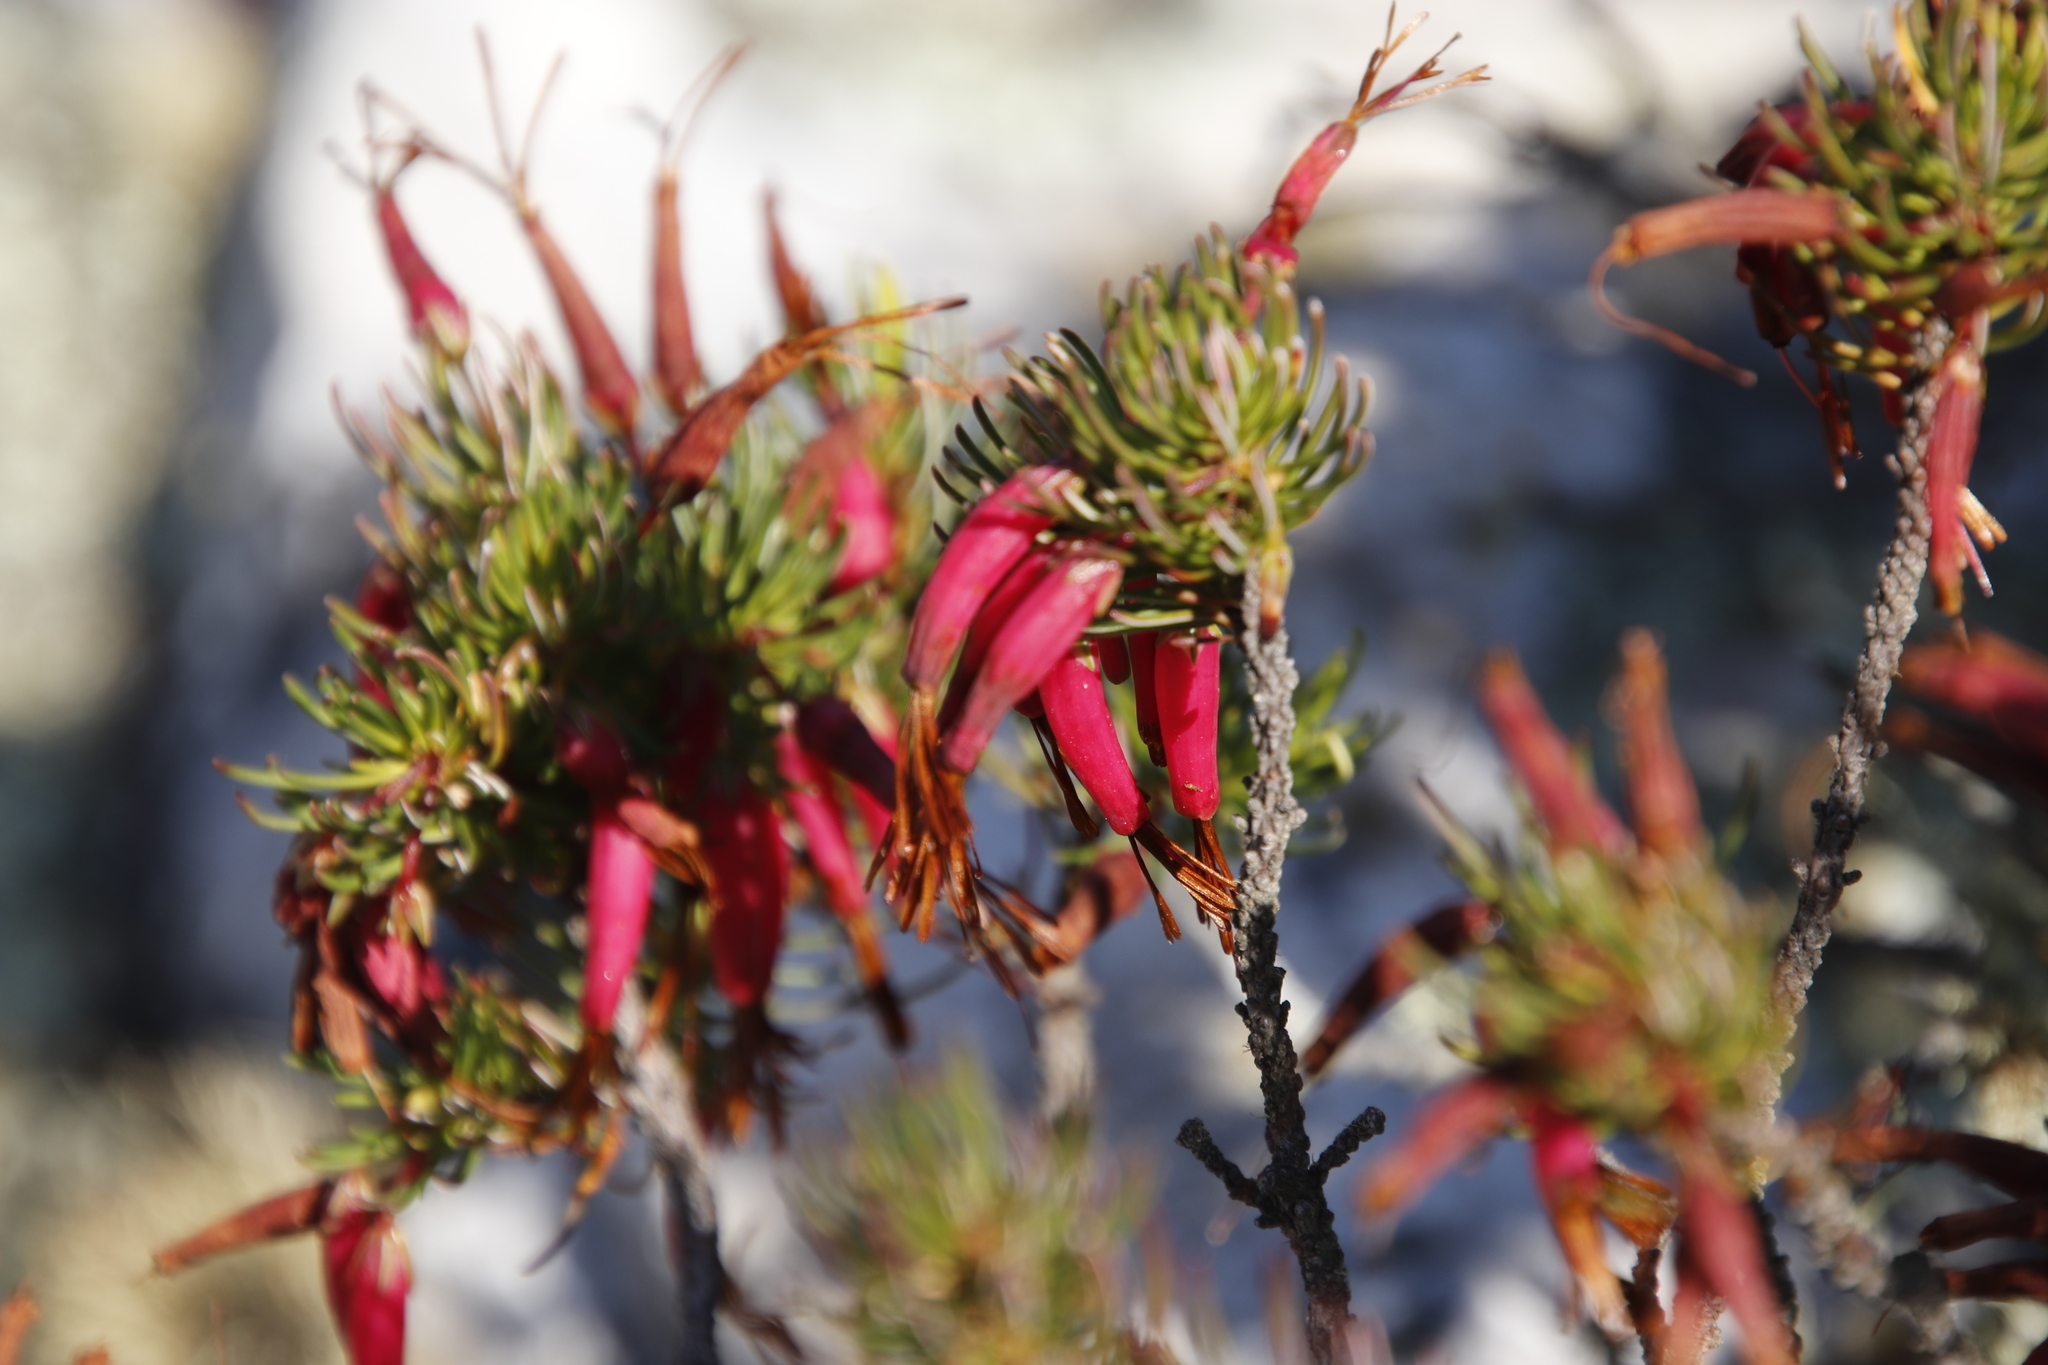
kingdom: Plantae
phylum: Tracheophyta
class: Magnoliopsida
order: Ericales
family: Ericaceae
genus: Erica
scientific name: Erica plukenetii
